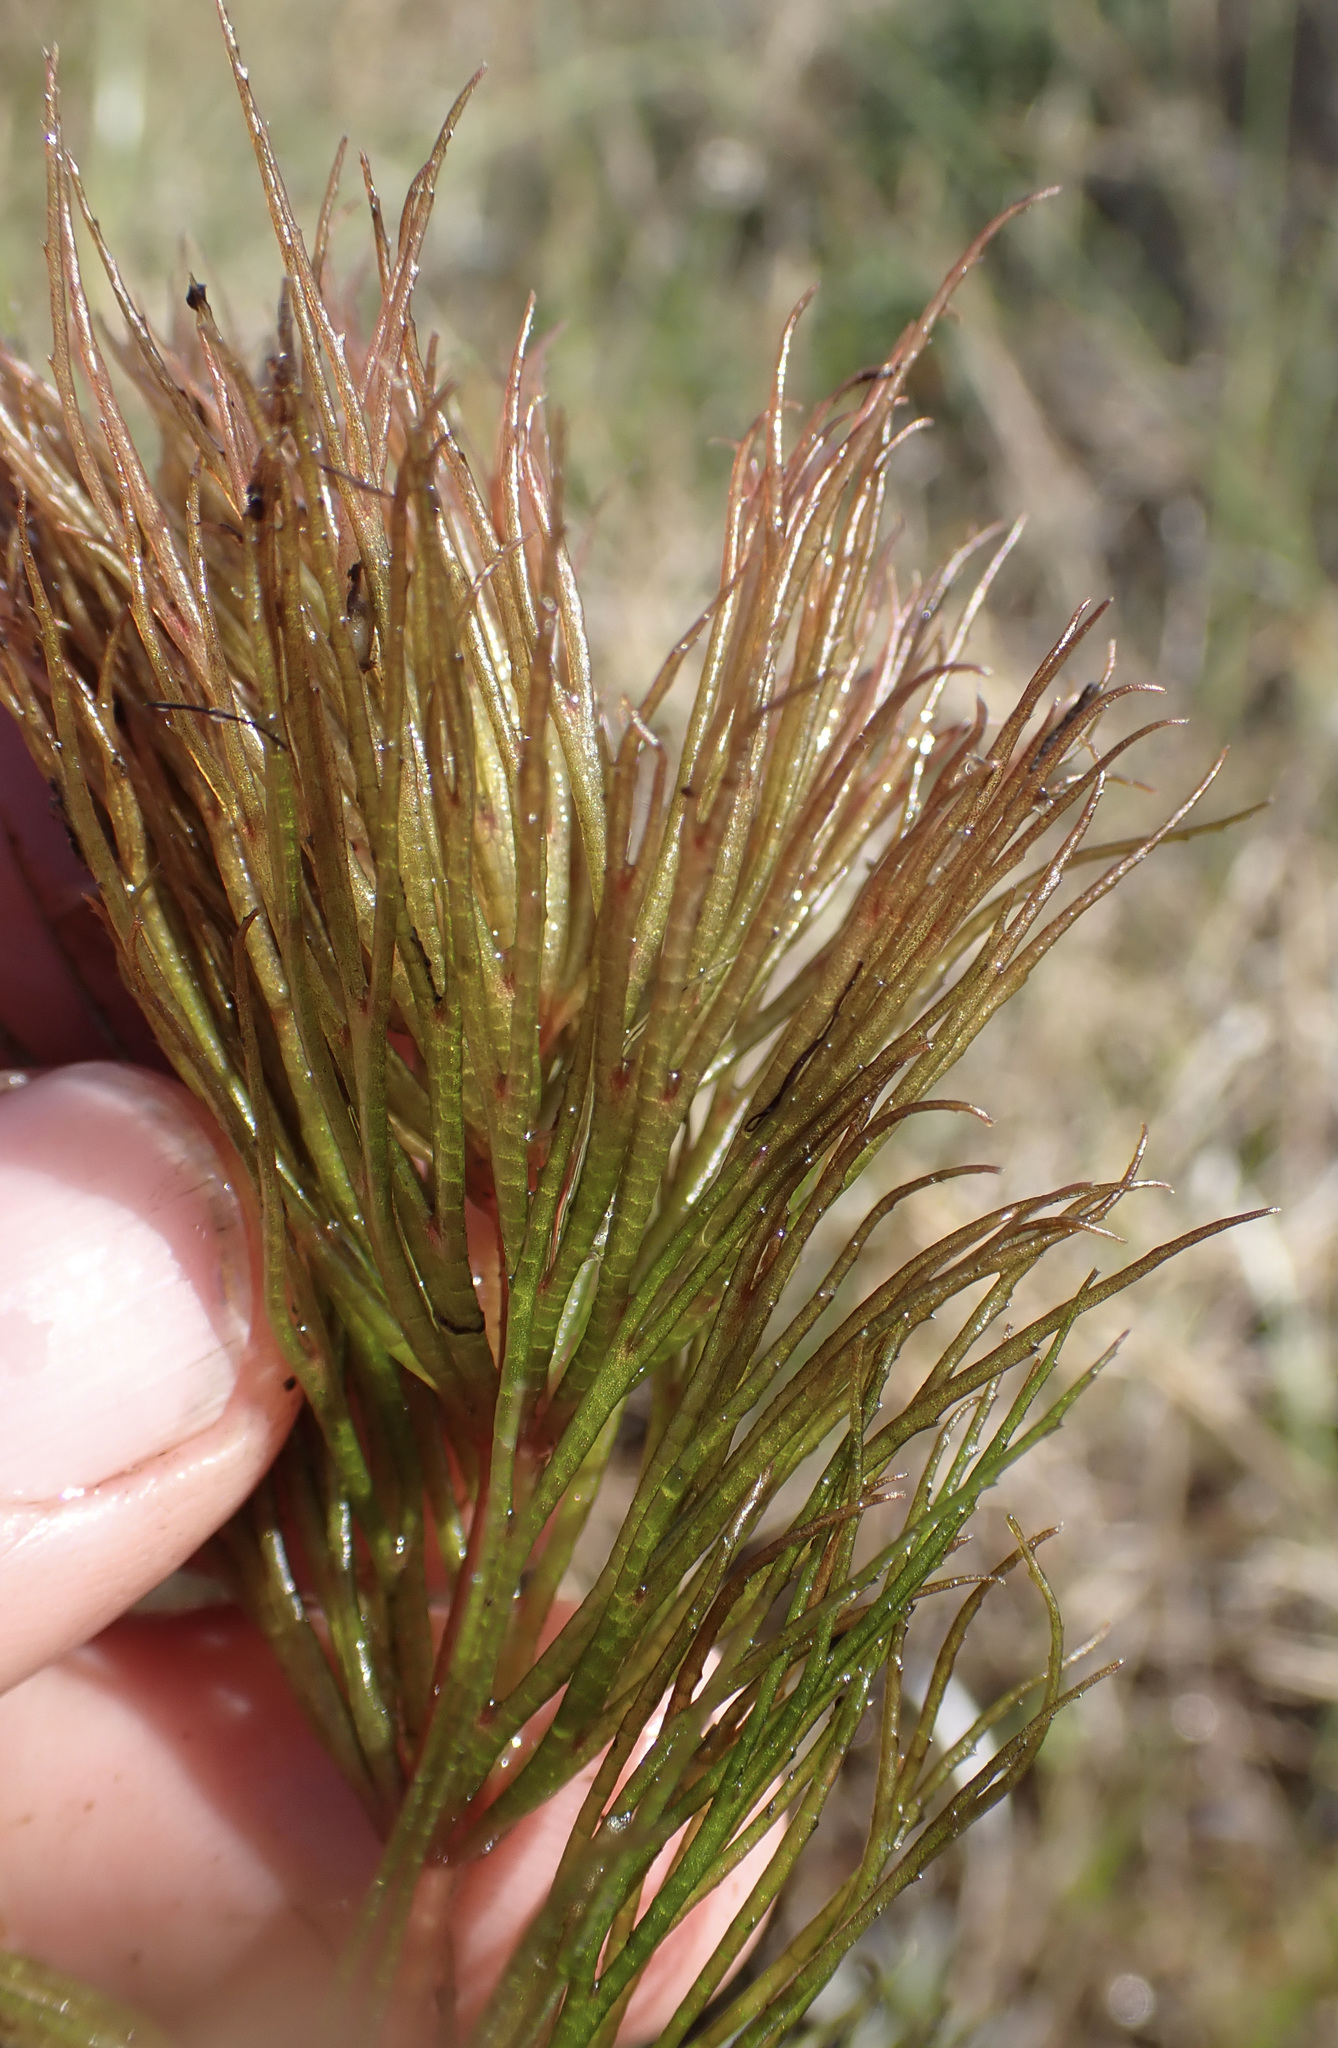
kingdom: Plantae
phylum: Tracheophyta
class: Magnoliopsida
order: Ceratophyllales
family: Ceratophyllaceae
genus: Ceratophyllum
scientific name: Ceratophyllum muricatum
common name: Prickly hornwort
